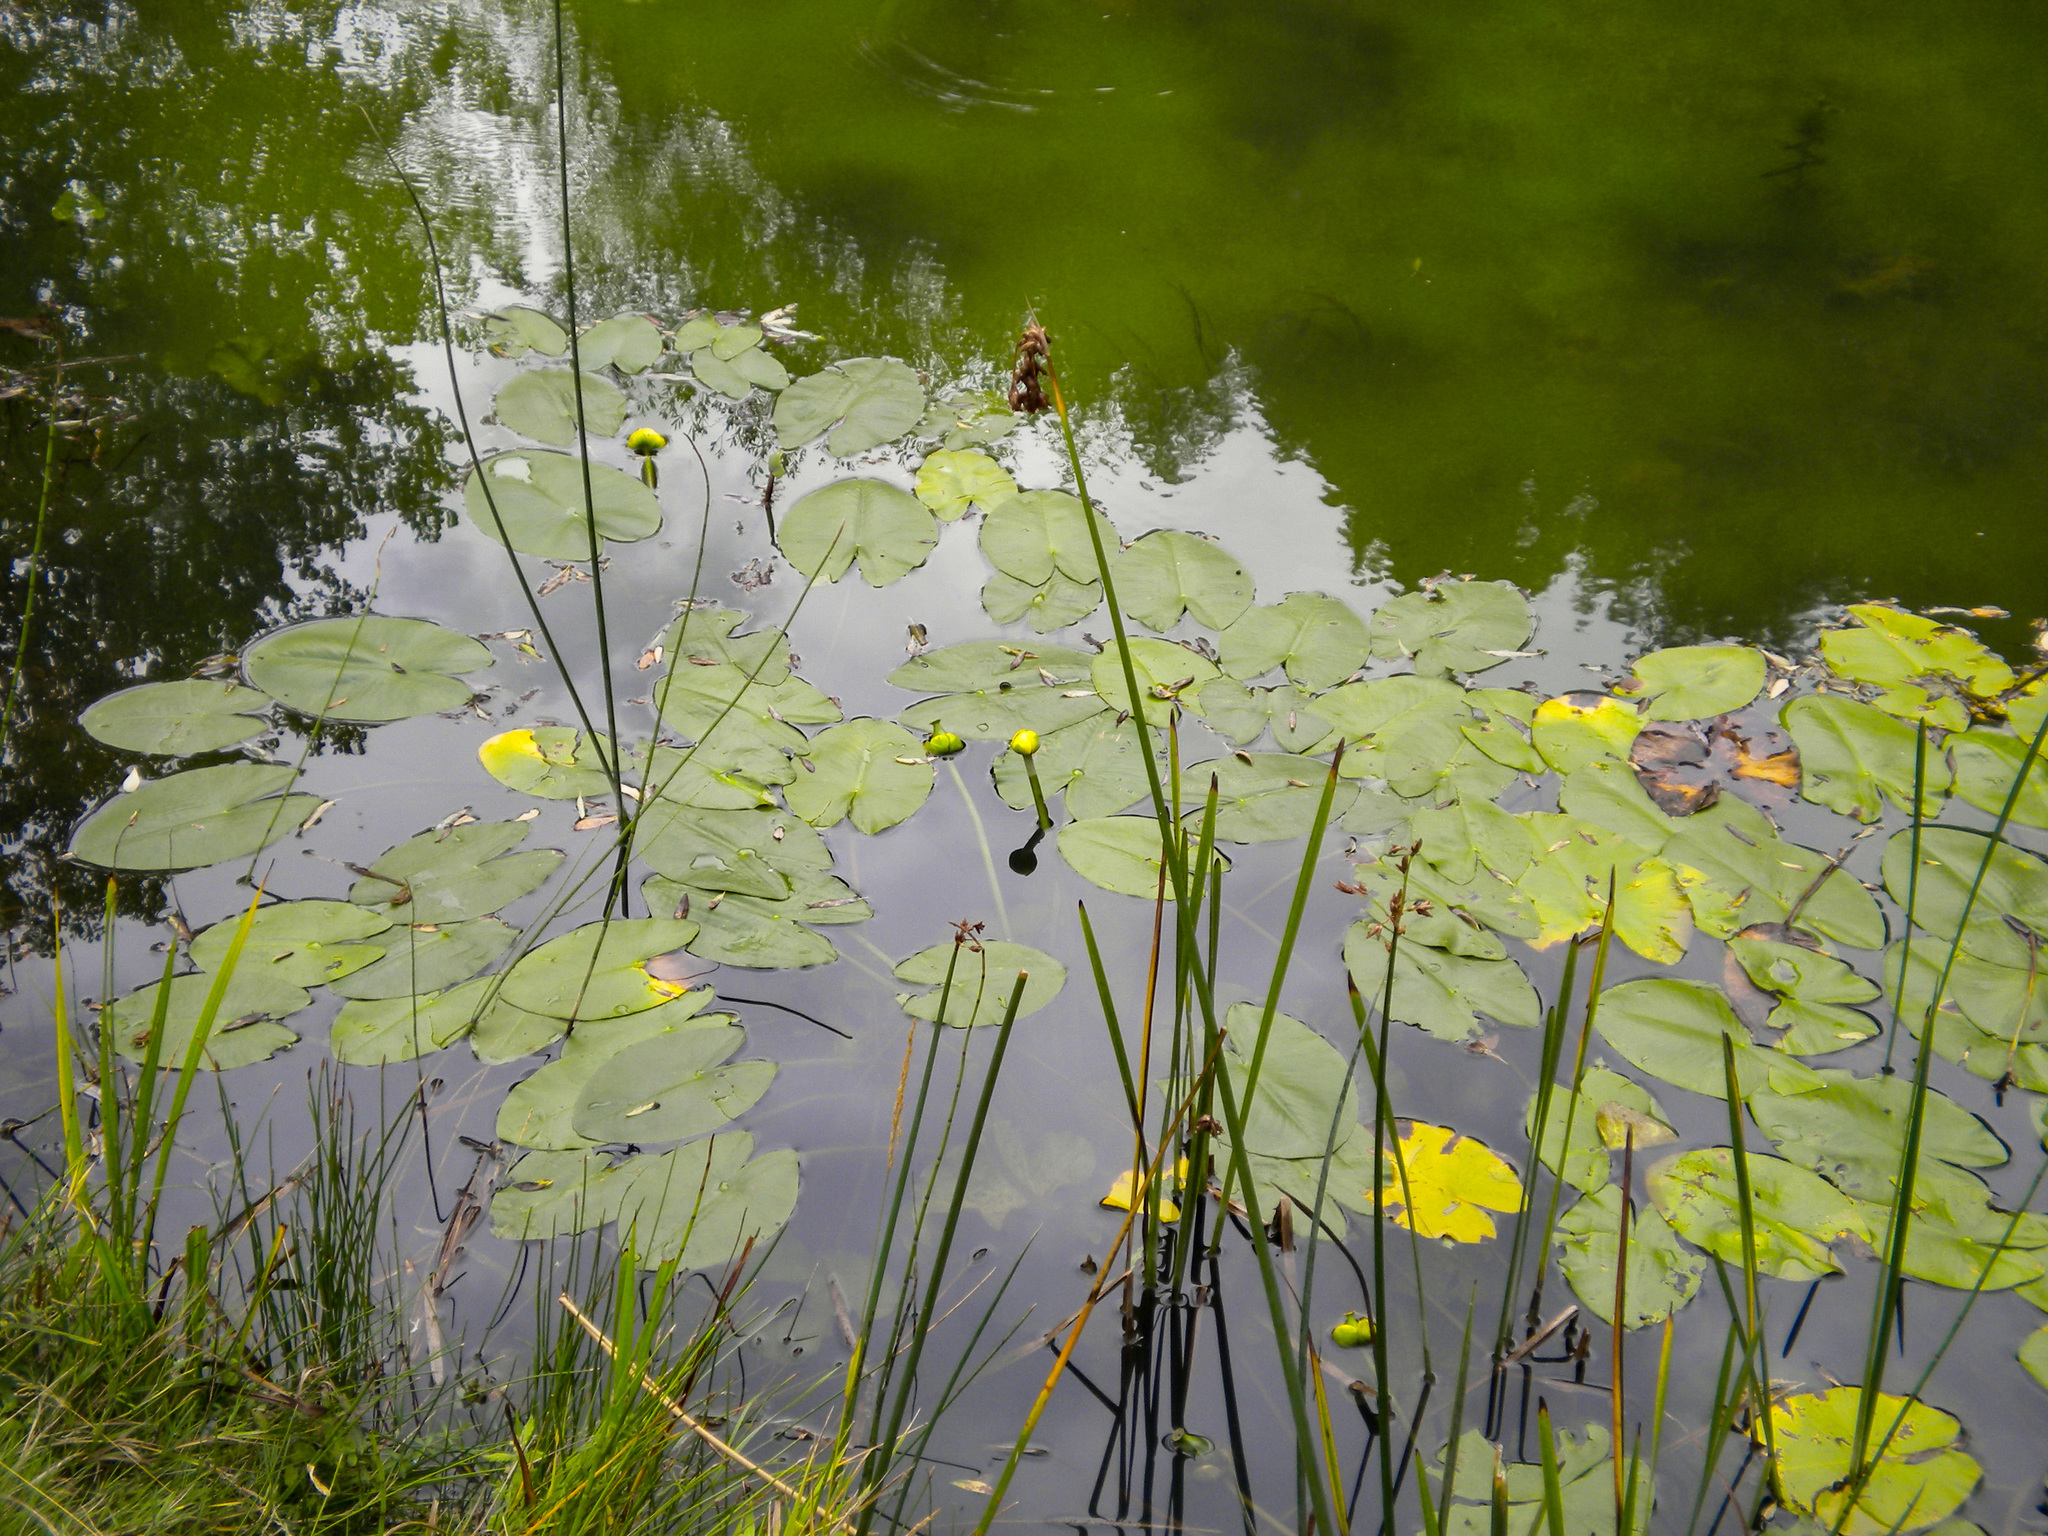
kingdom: Plantae
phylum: Tracheophyta
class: Magnoliopsida
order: Nymphaeales
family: Nymphaeaceae
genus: Nuphar
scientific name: Nuphar lutea
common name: Yellow water-lily
